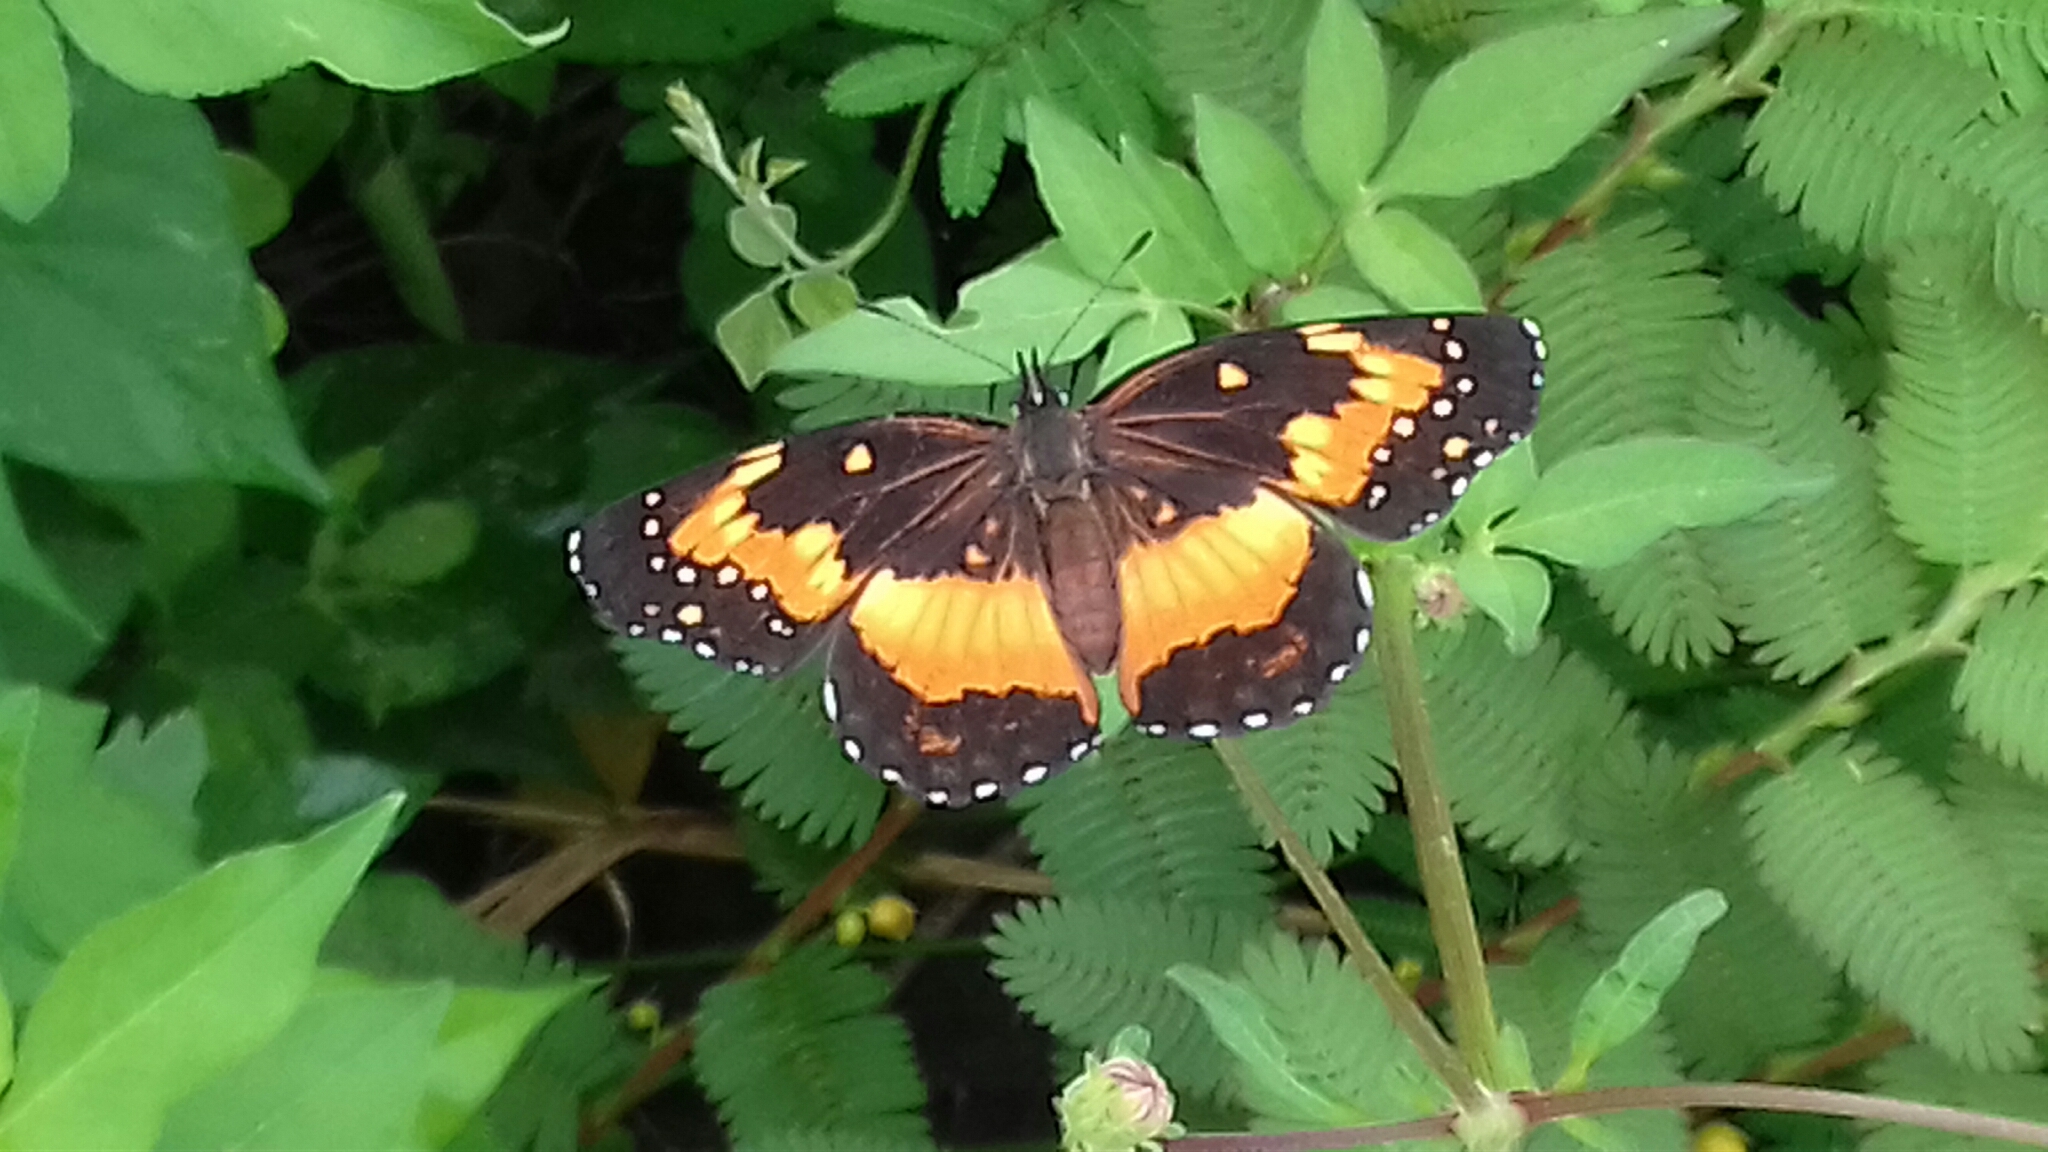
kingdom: Animalia
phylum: Arthropoda
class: Insecta
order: Lepidoptera
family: Nymphalidae
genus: Chlosyne
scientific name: Chlosyne lacinia
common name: Bordered patch
